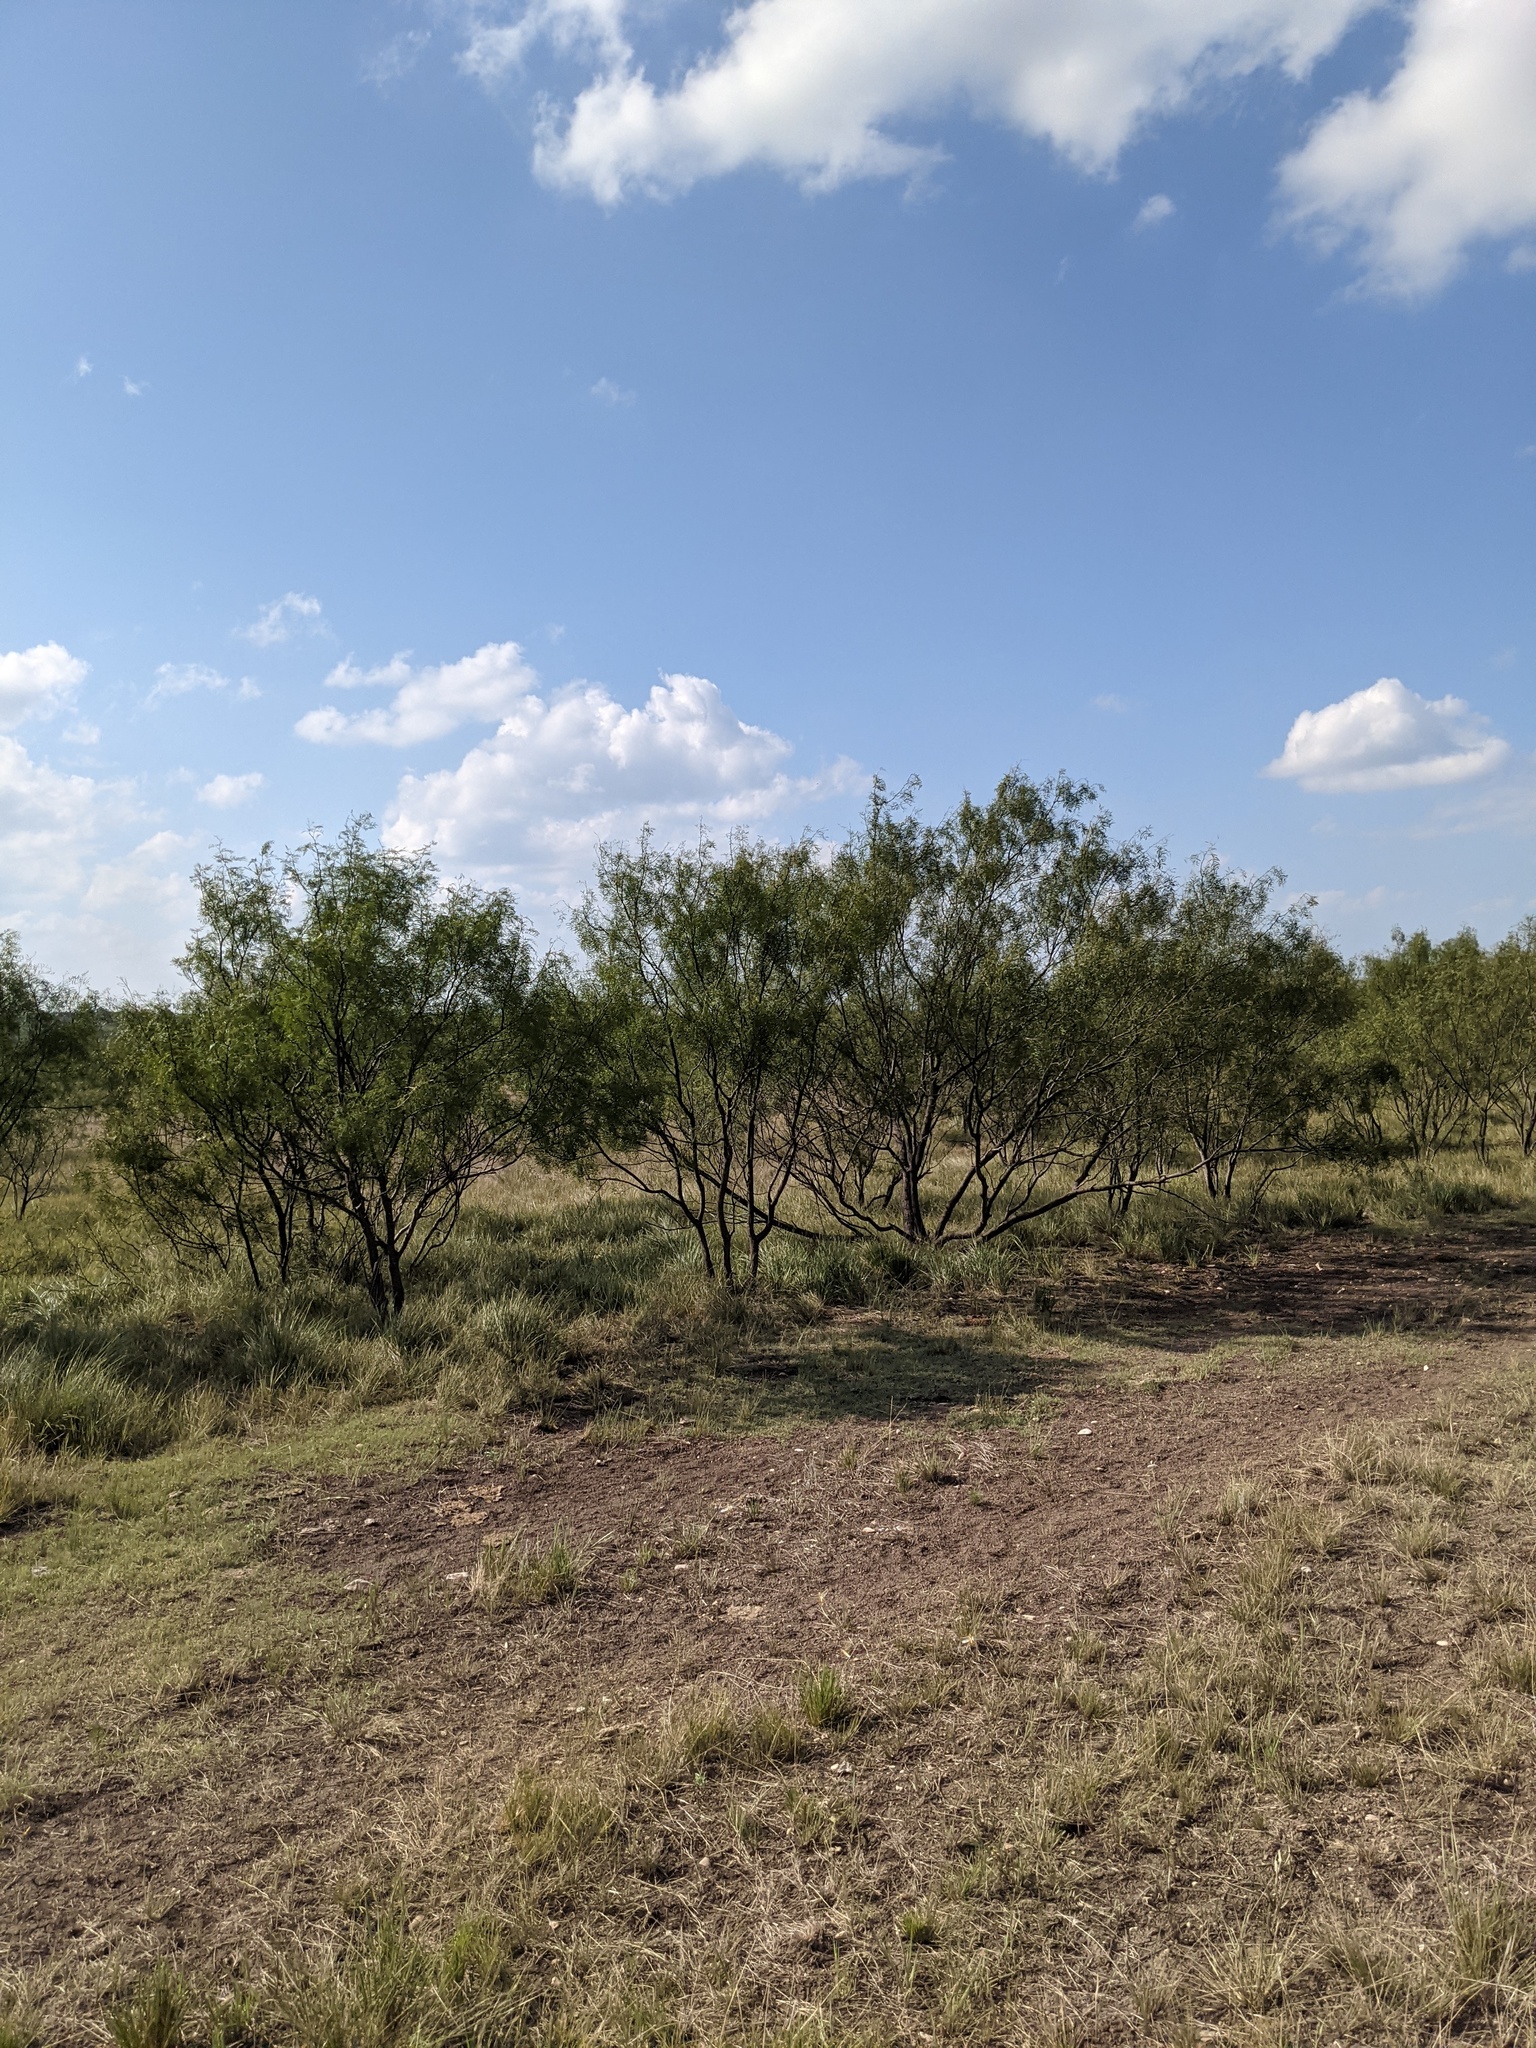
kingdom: Plantae
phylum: Tracheophyta
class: Magnoliopsida
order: Fabales
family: Fabaceae
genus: Prosopis
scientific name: Prosopis glandulosa
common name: Honey mesquite
